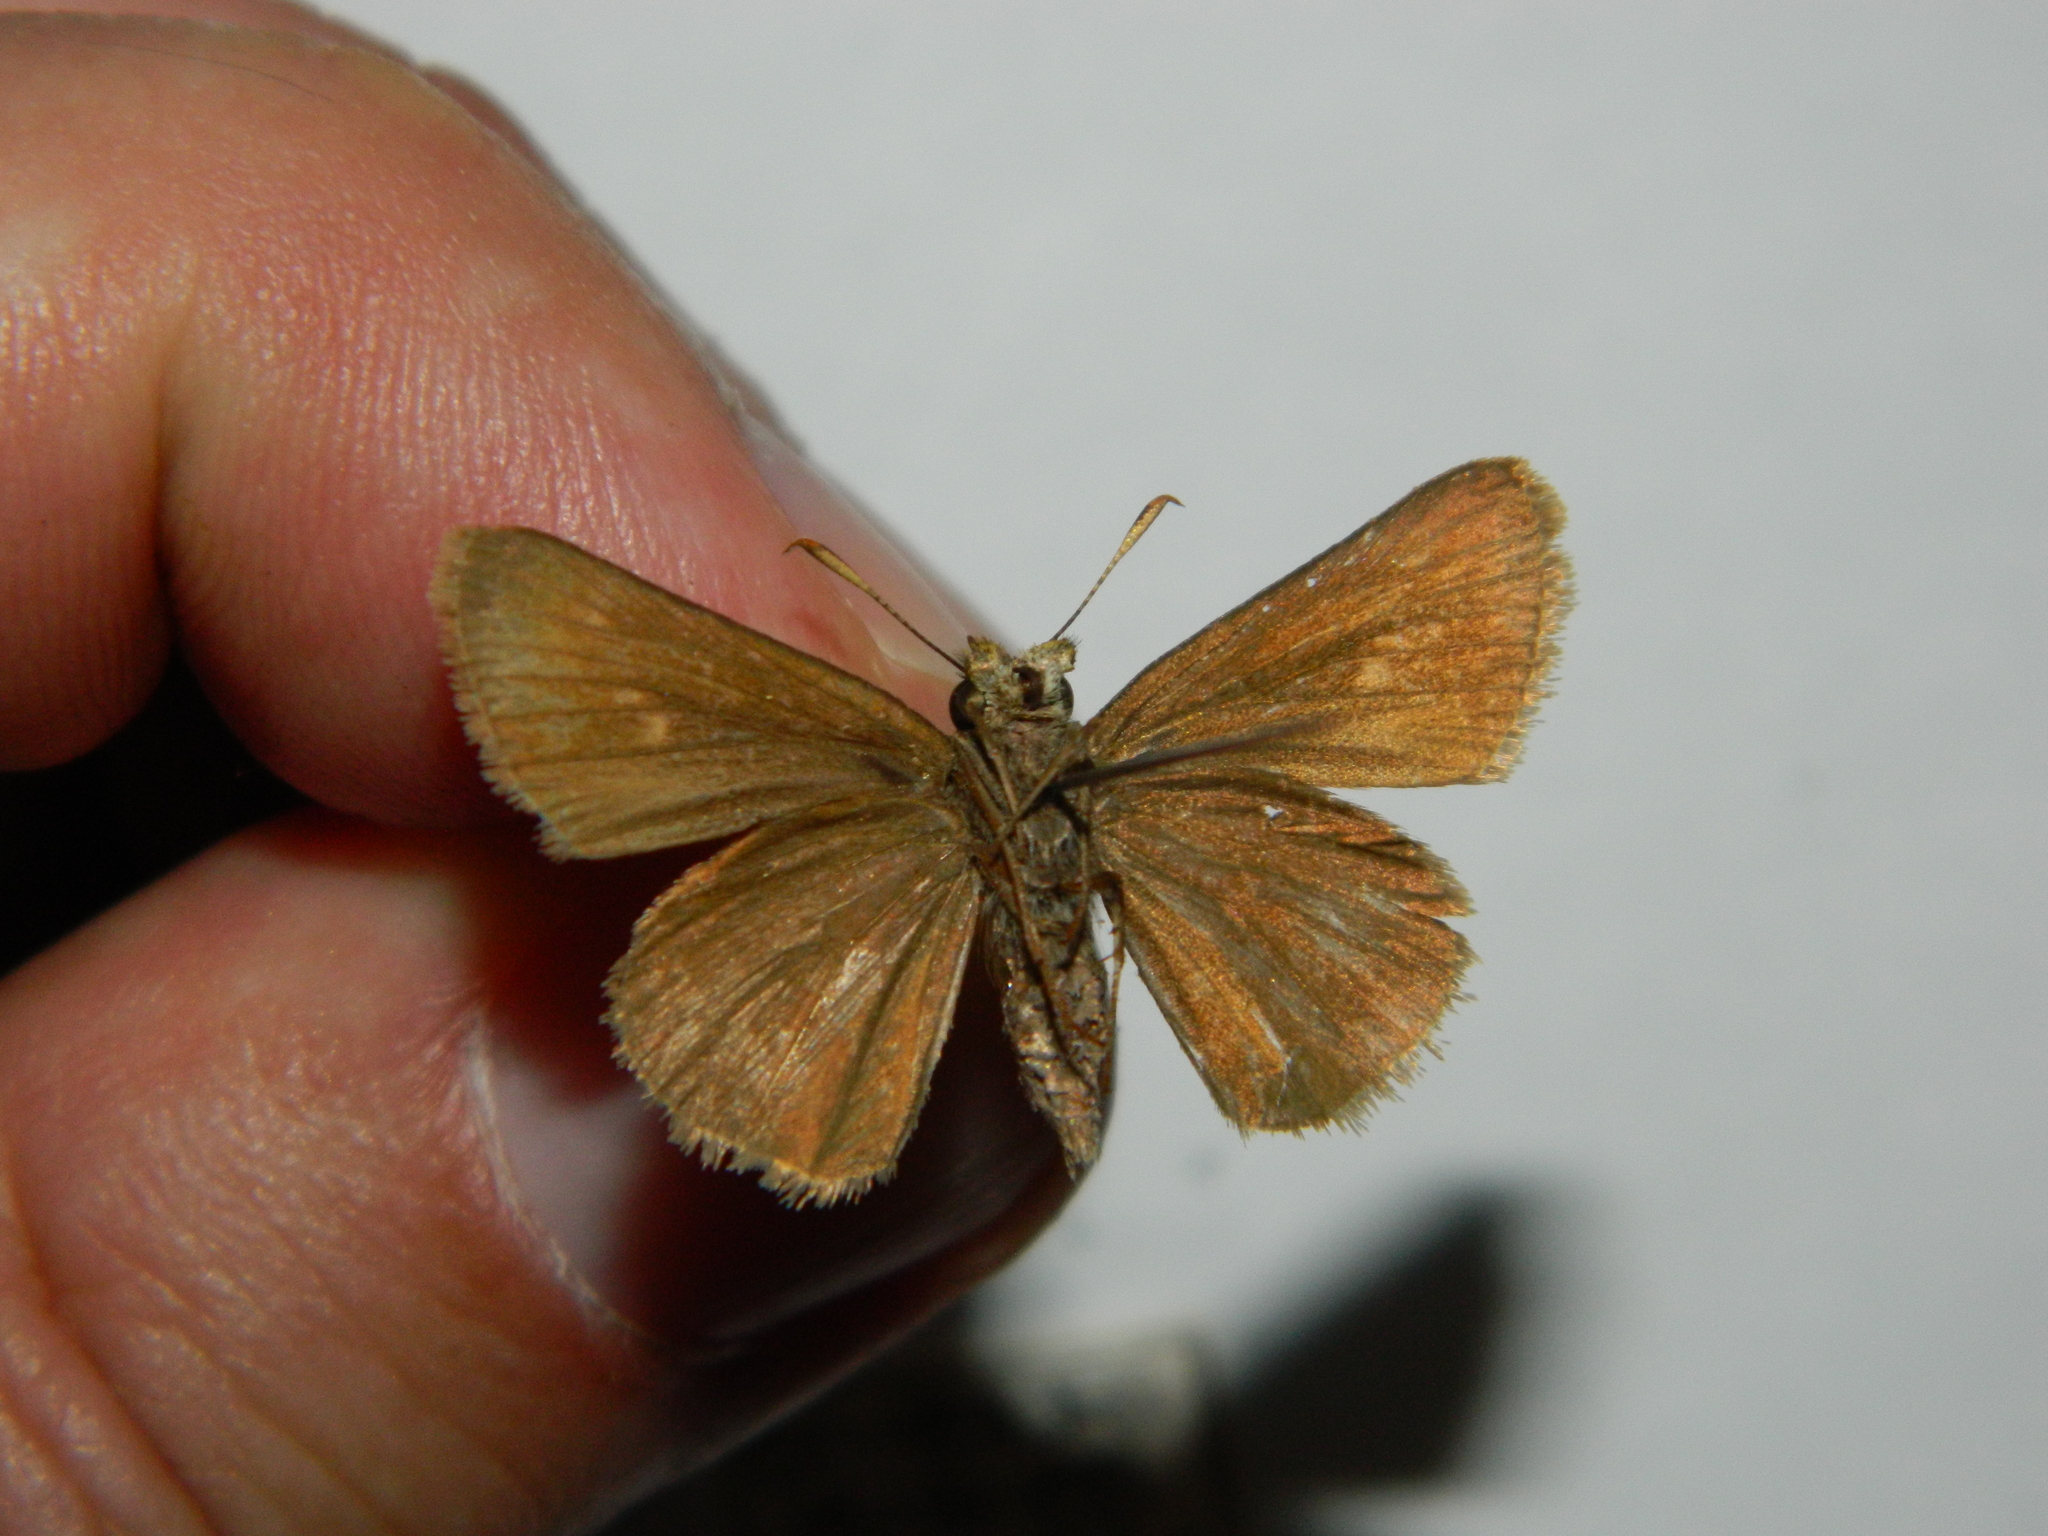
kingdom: Animalia
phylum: Arthropoda
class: Insecta
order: Lepidoptera
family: Hesperiidae
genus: Euphyes
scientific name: Euphyes vestris
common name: Dun skipper
